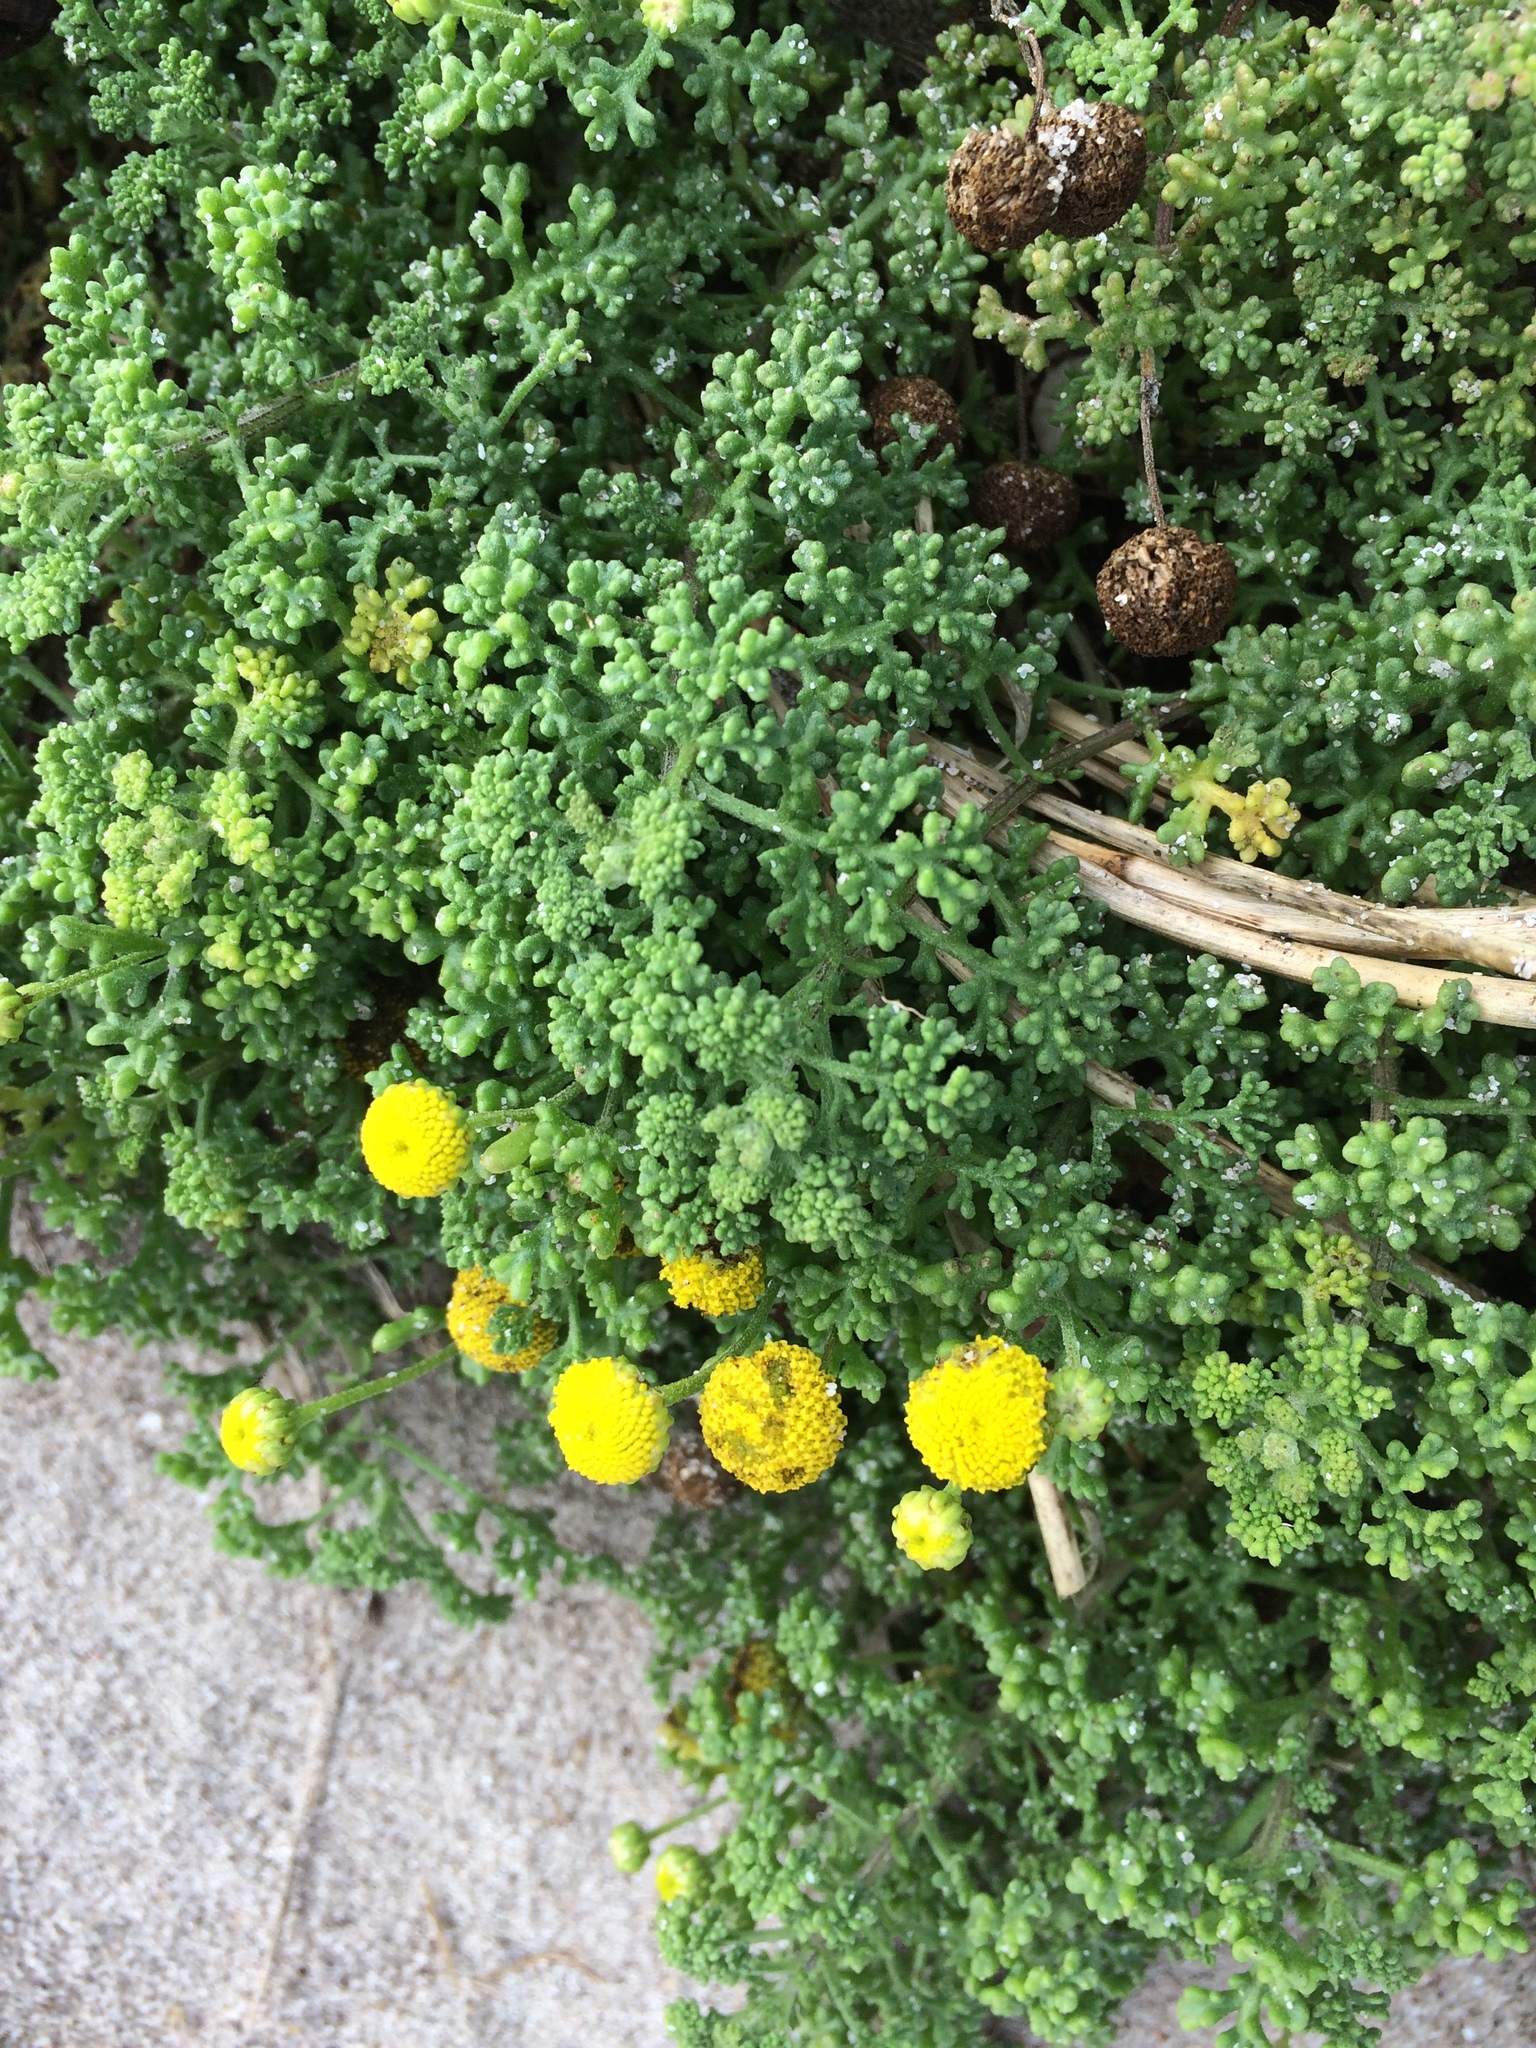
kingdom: Plantae
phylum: Tracheophyta
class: Magnoliopsida
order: Asterales
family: Asteraceae
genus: Oncosiphon
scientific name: Oncosiphon sabulosus
